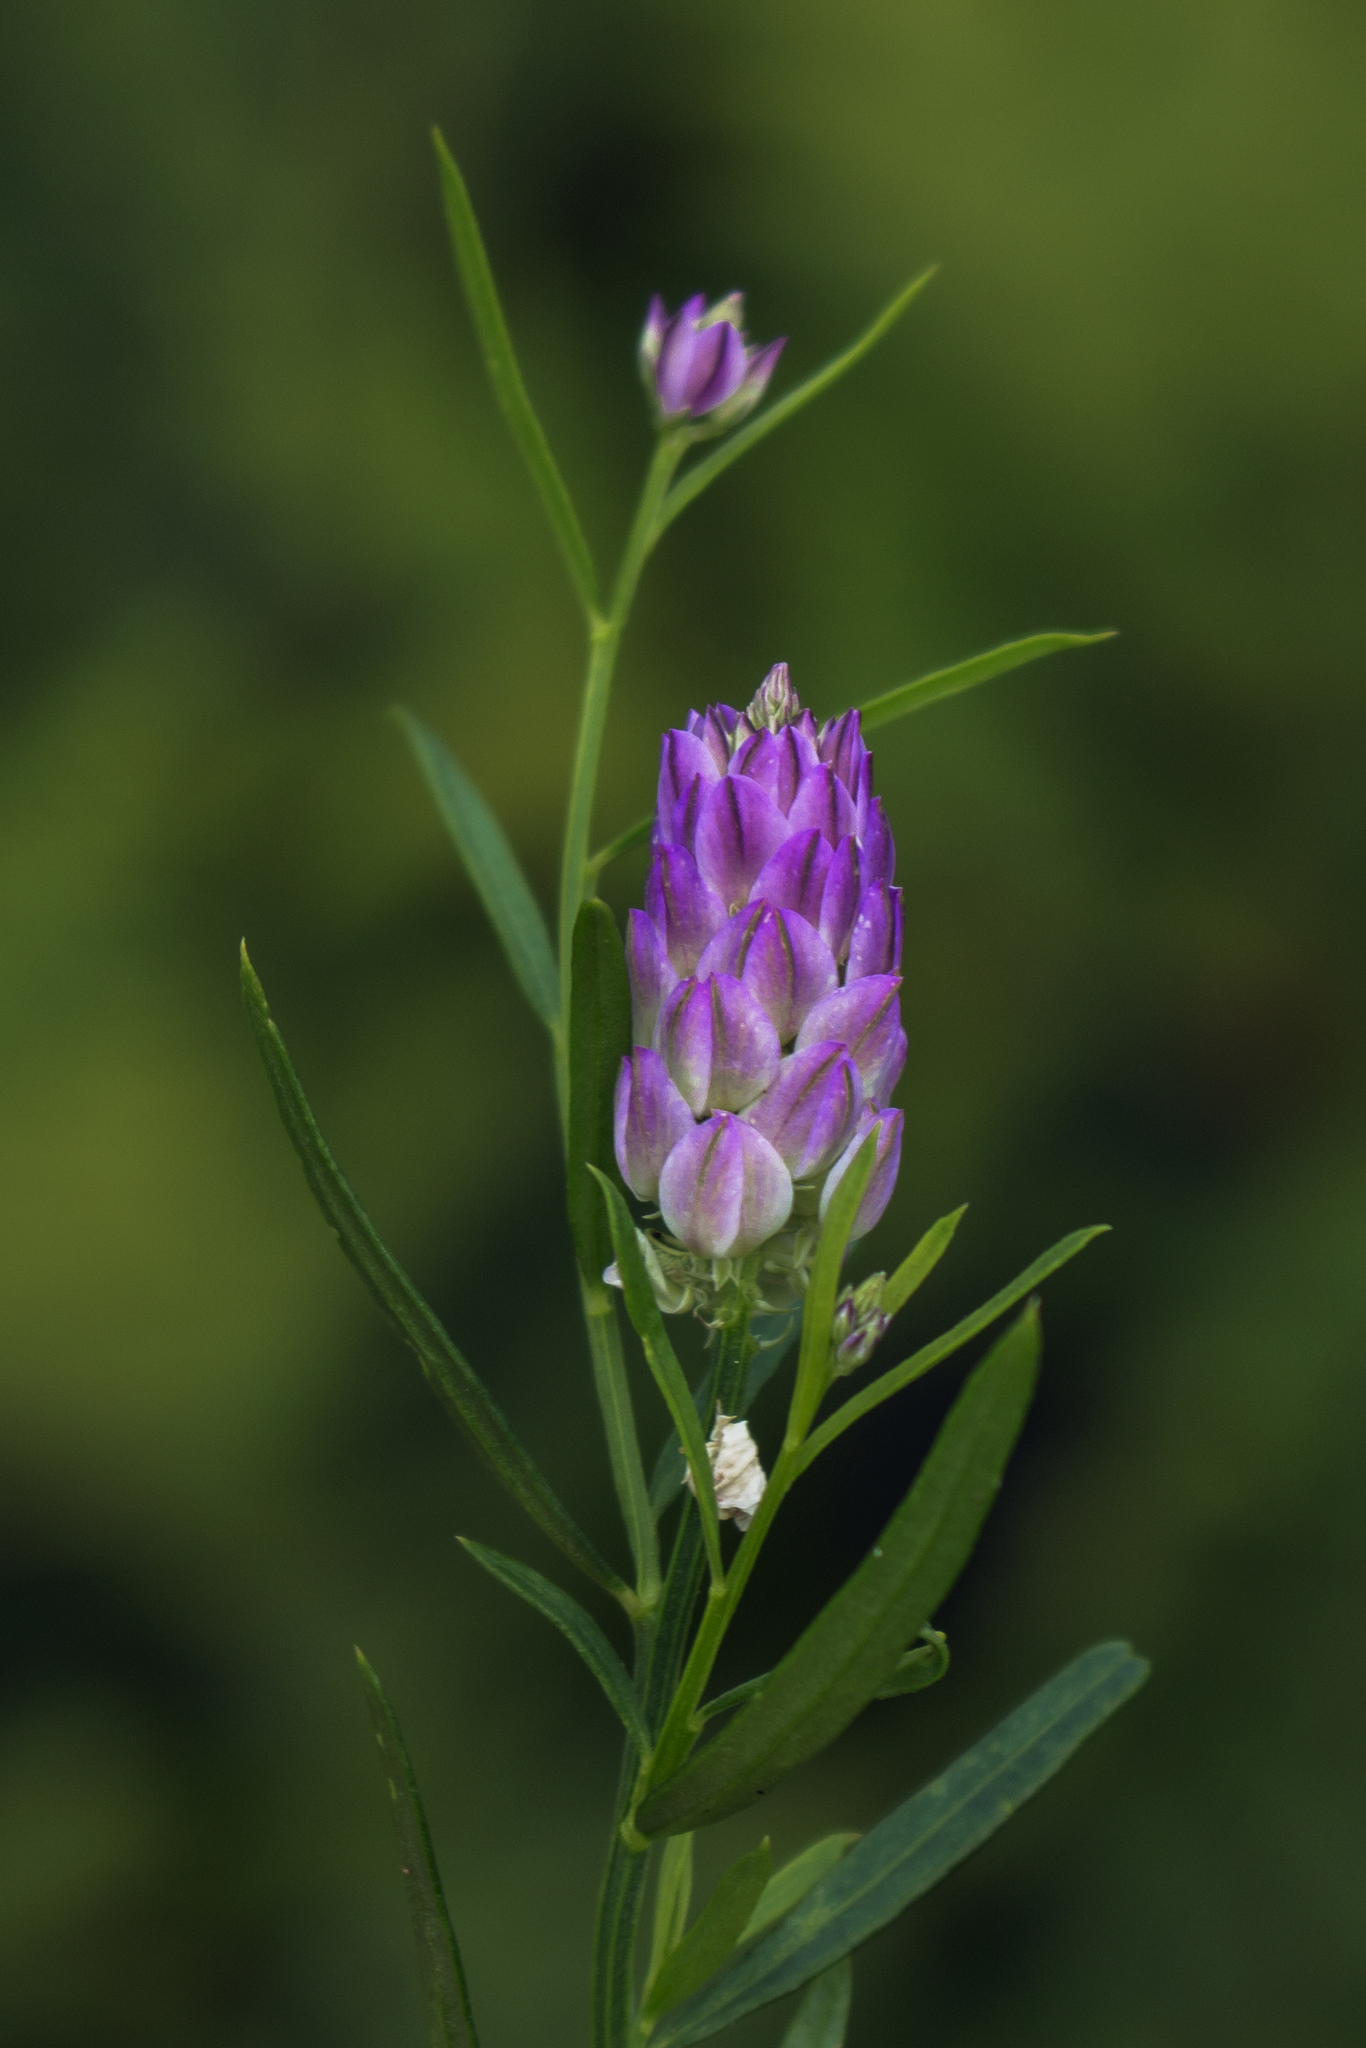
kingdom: Plantae
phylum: Tracheophyta
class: Magnoliopsida
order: Fabales
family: Polygalaceae
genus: Polygala
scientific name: Polygala sanguinea
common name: Blood milkwort
